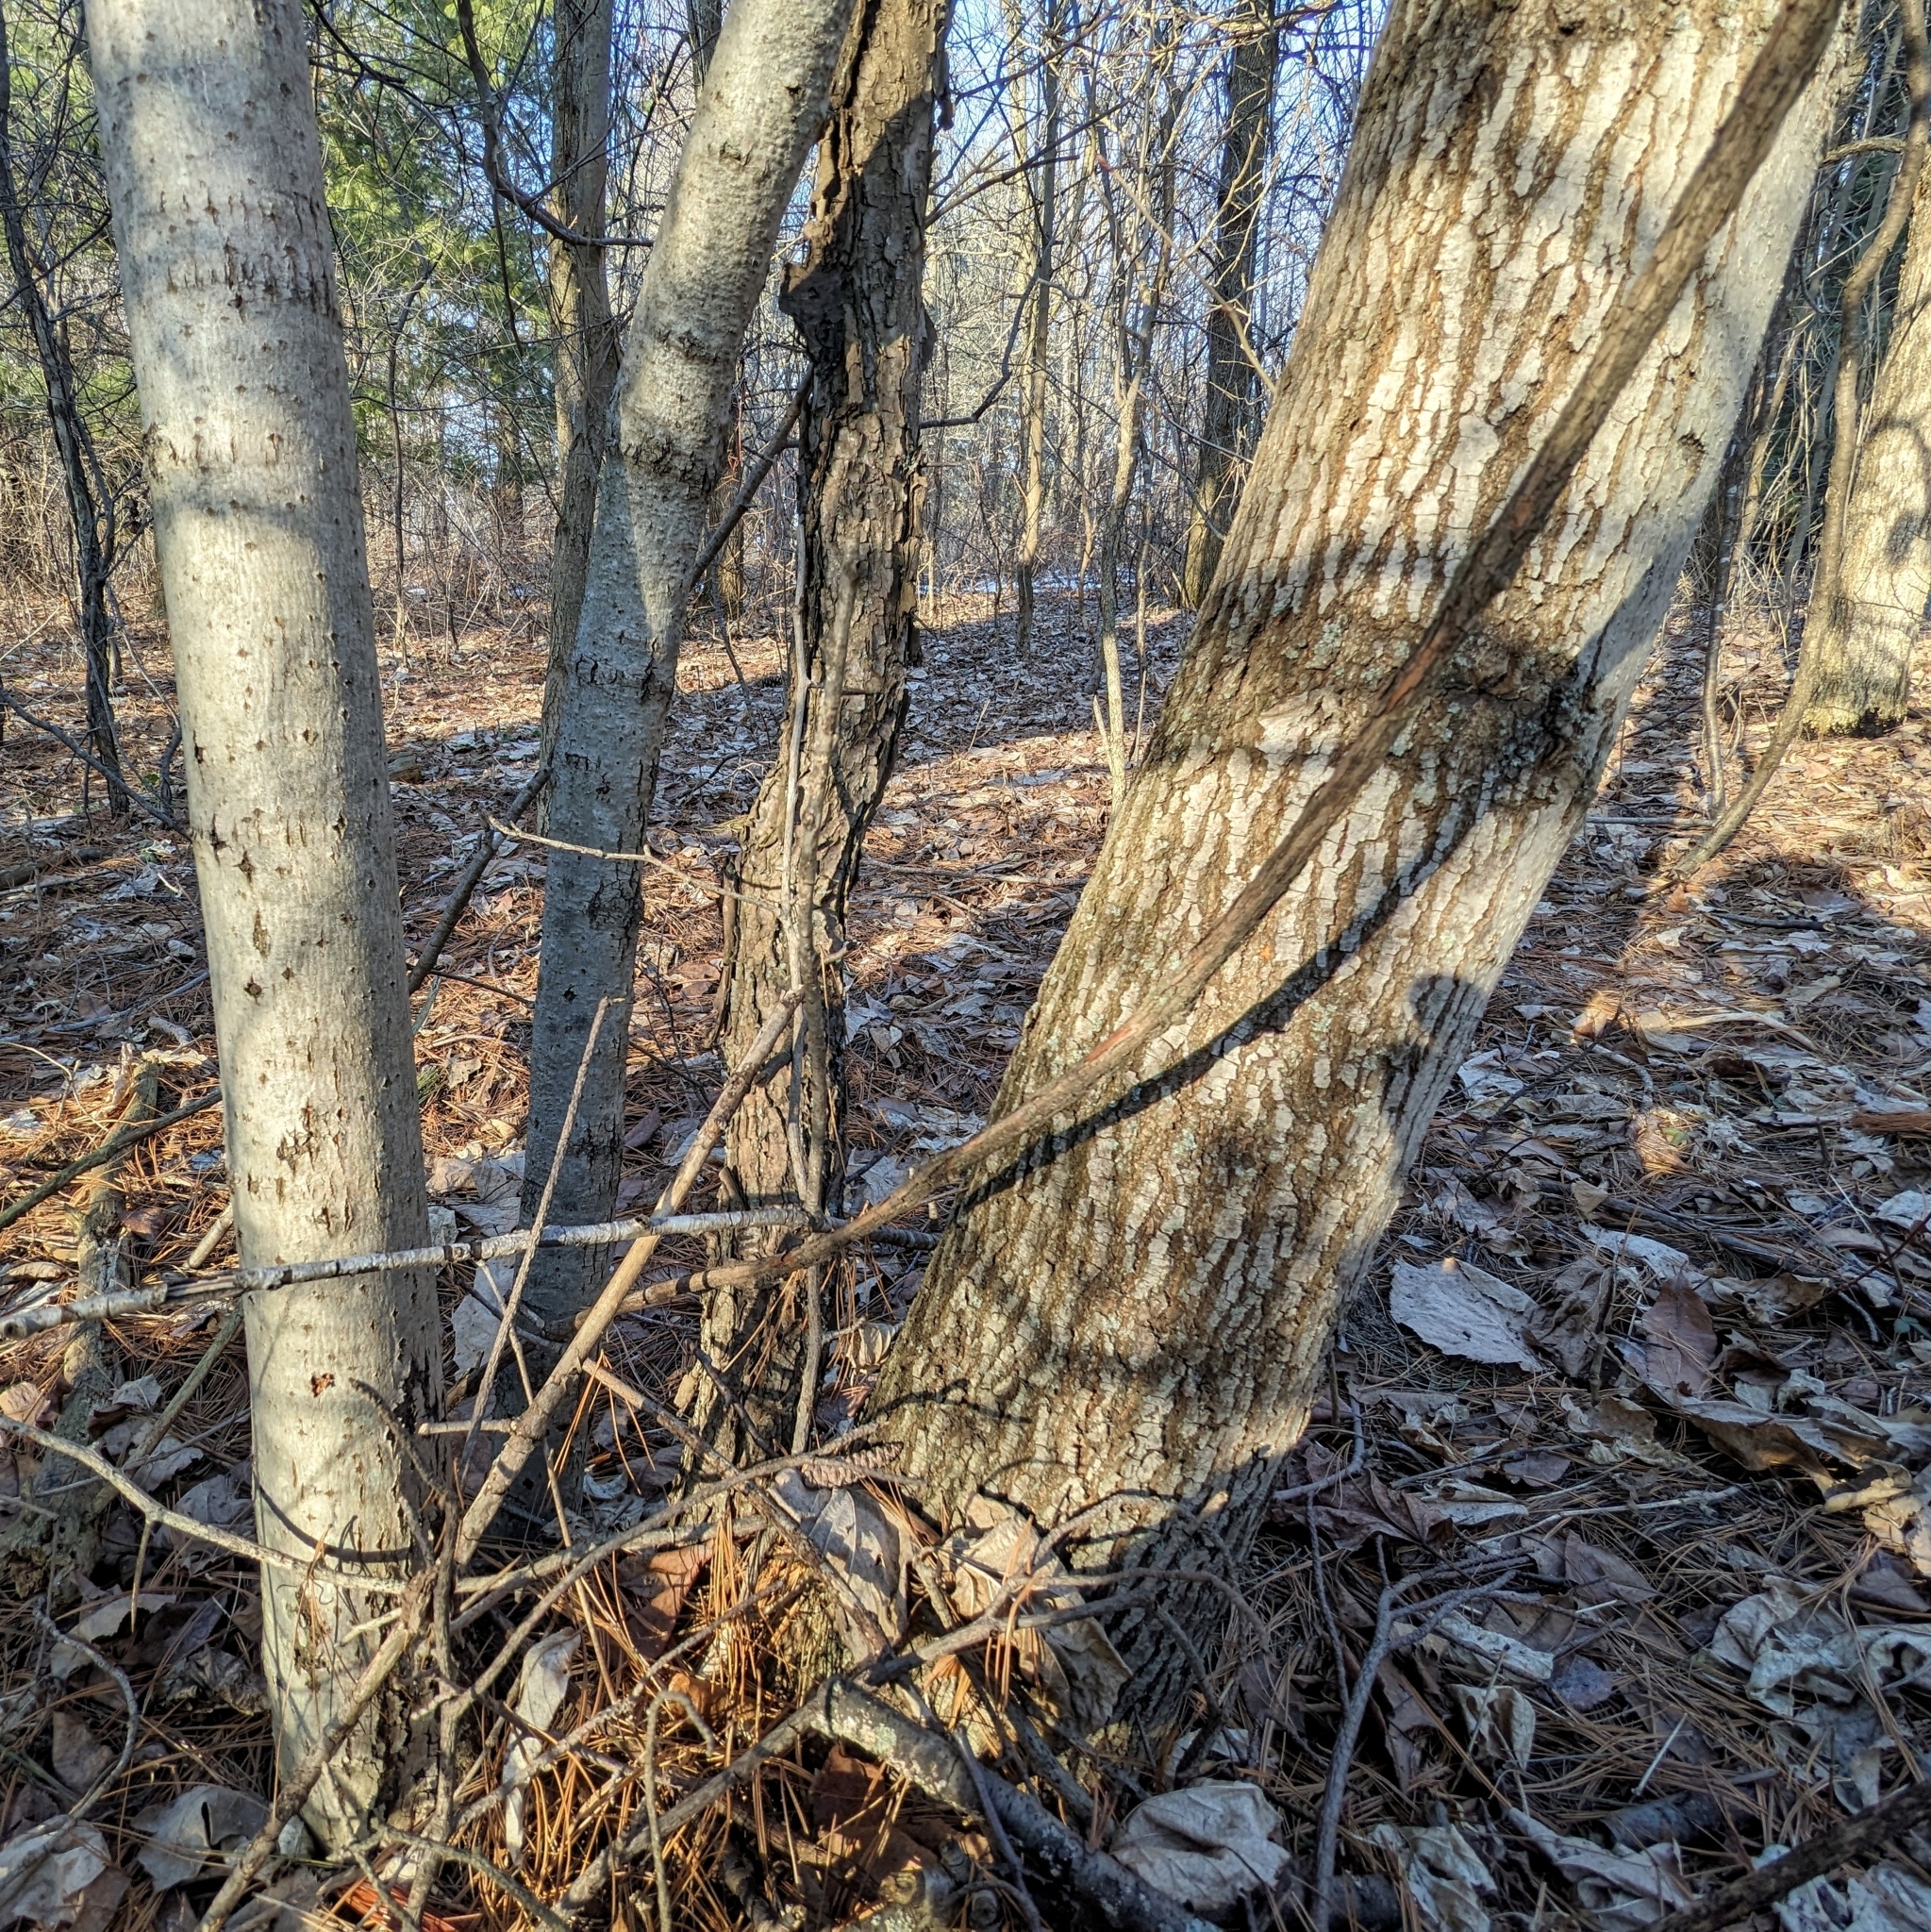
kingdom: Plantae
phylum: Tracheophyta
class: Magnoliopsida
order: Malvales
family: Malvaceae
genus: Tilia
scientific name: Tilia americana
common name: Basswood
